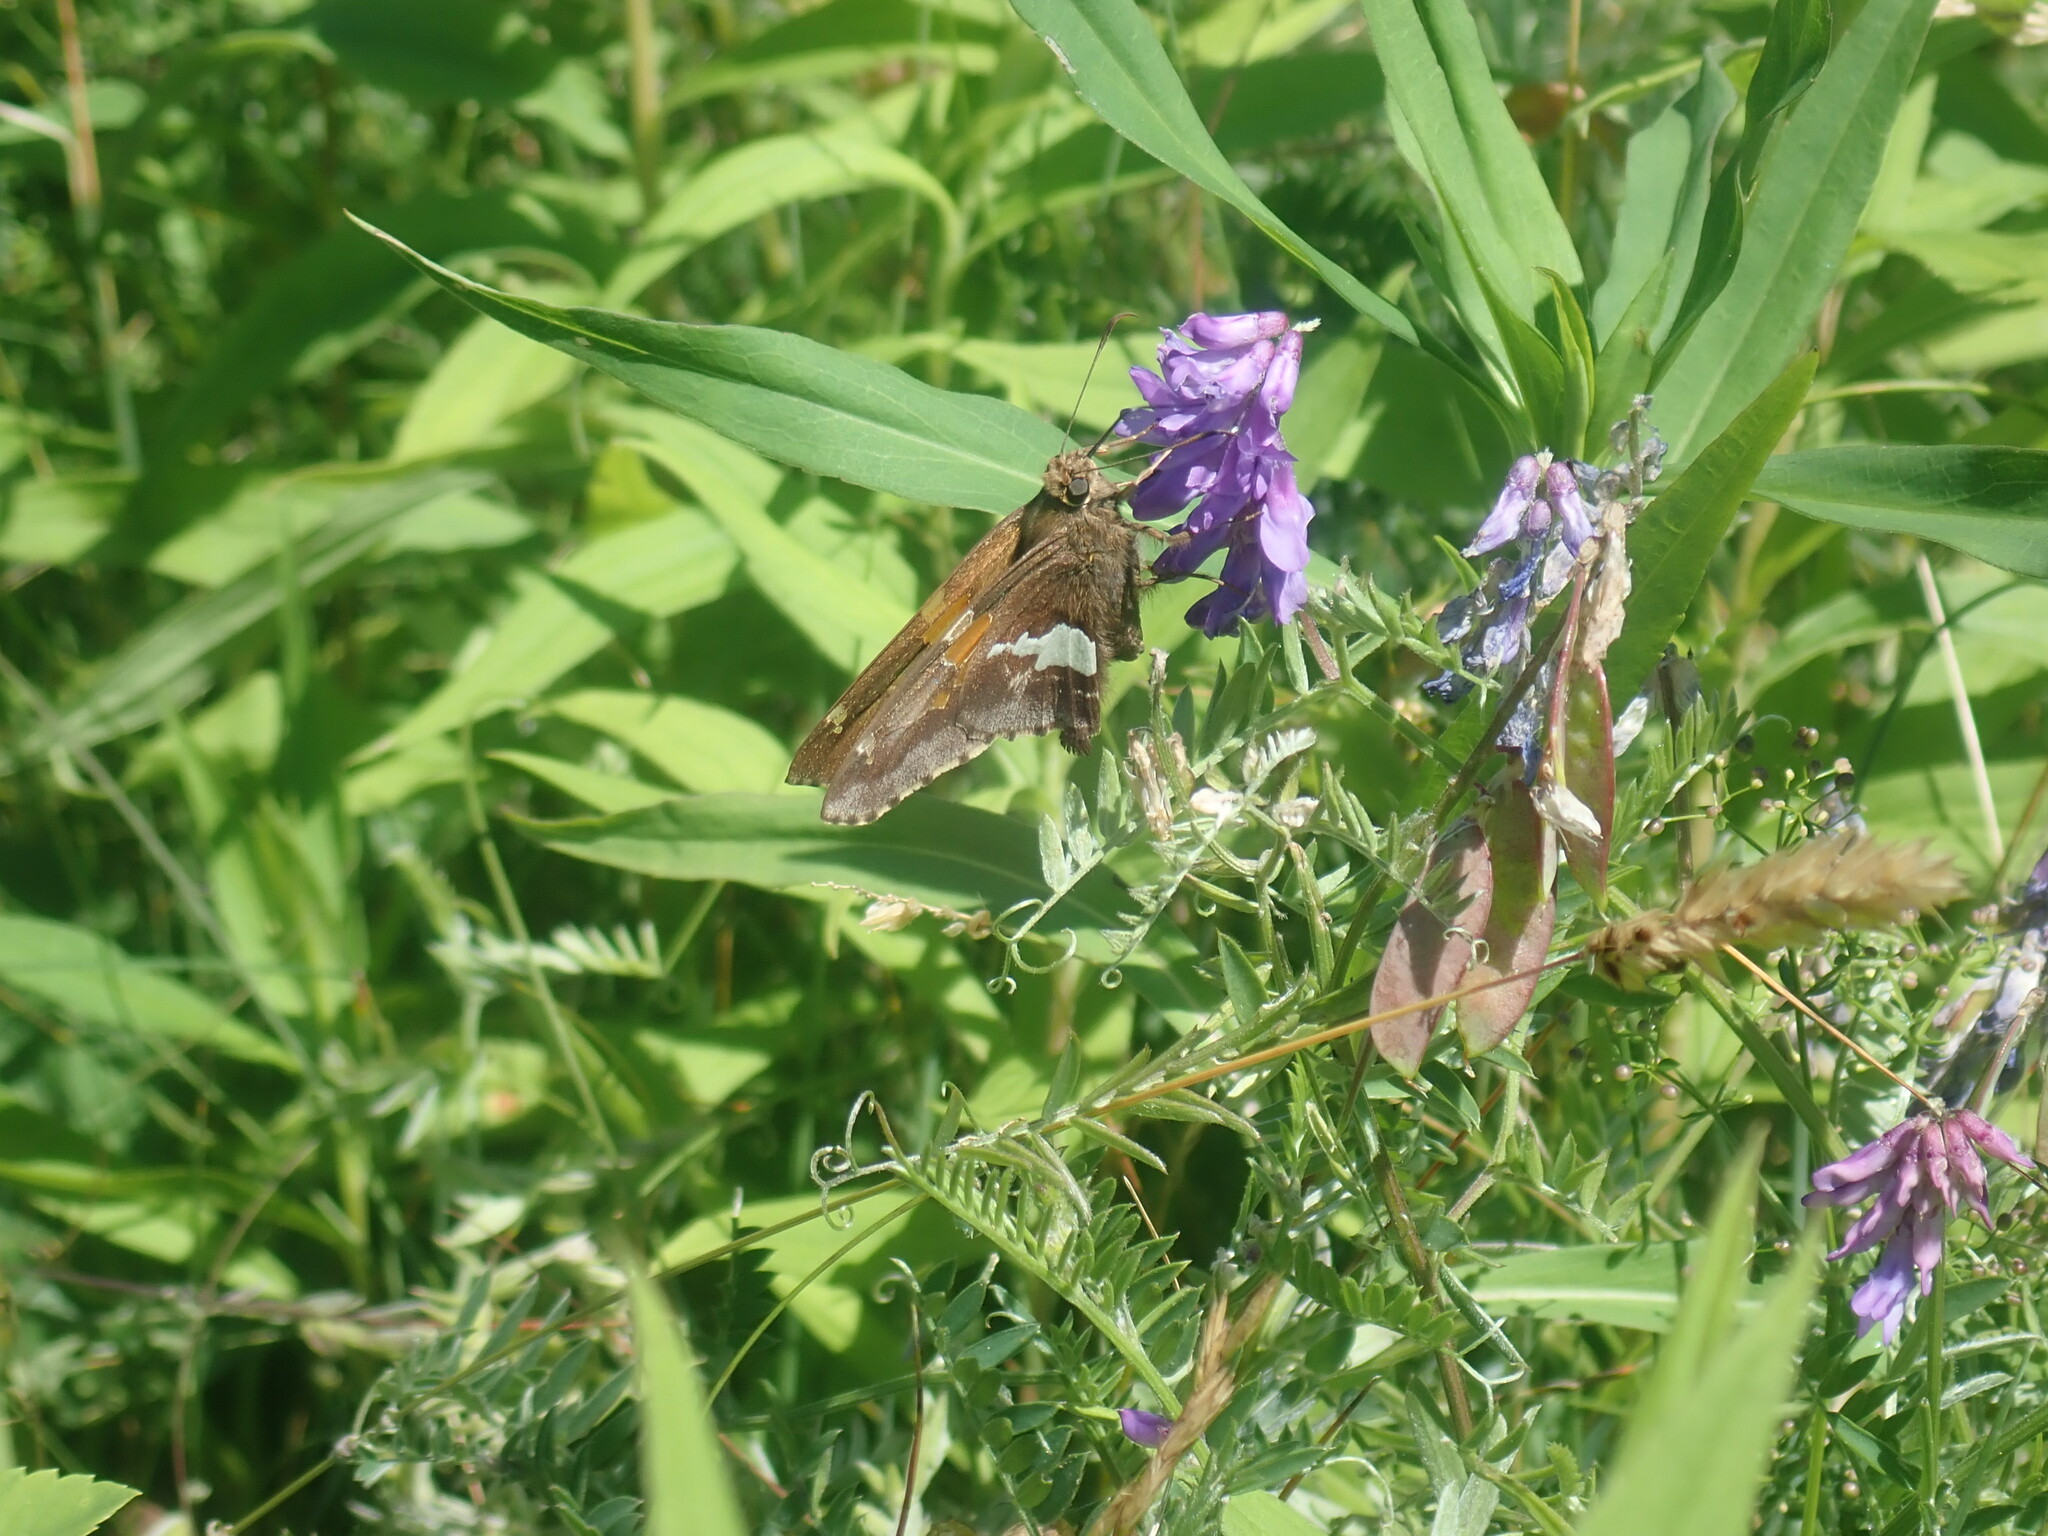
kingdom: Animalia
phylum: Arthropoda
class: Insecta
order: Lepidoptera
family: Hesperiidae
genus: Epargyreus
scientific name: Epargyreus clarus
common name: Silver-spotted skipper
